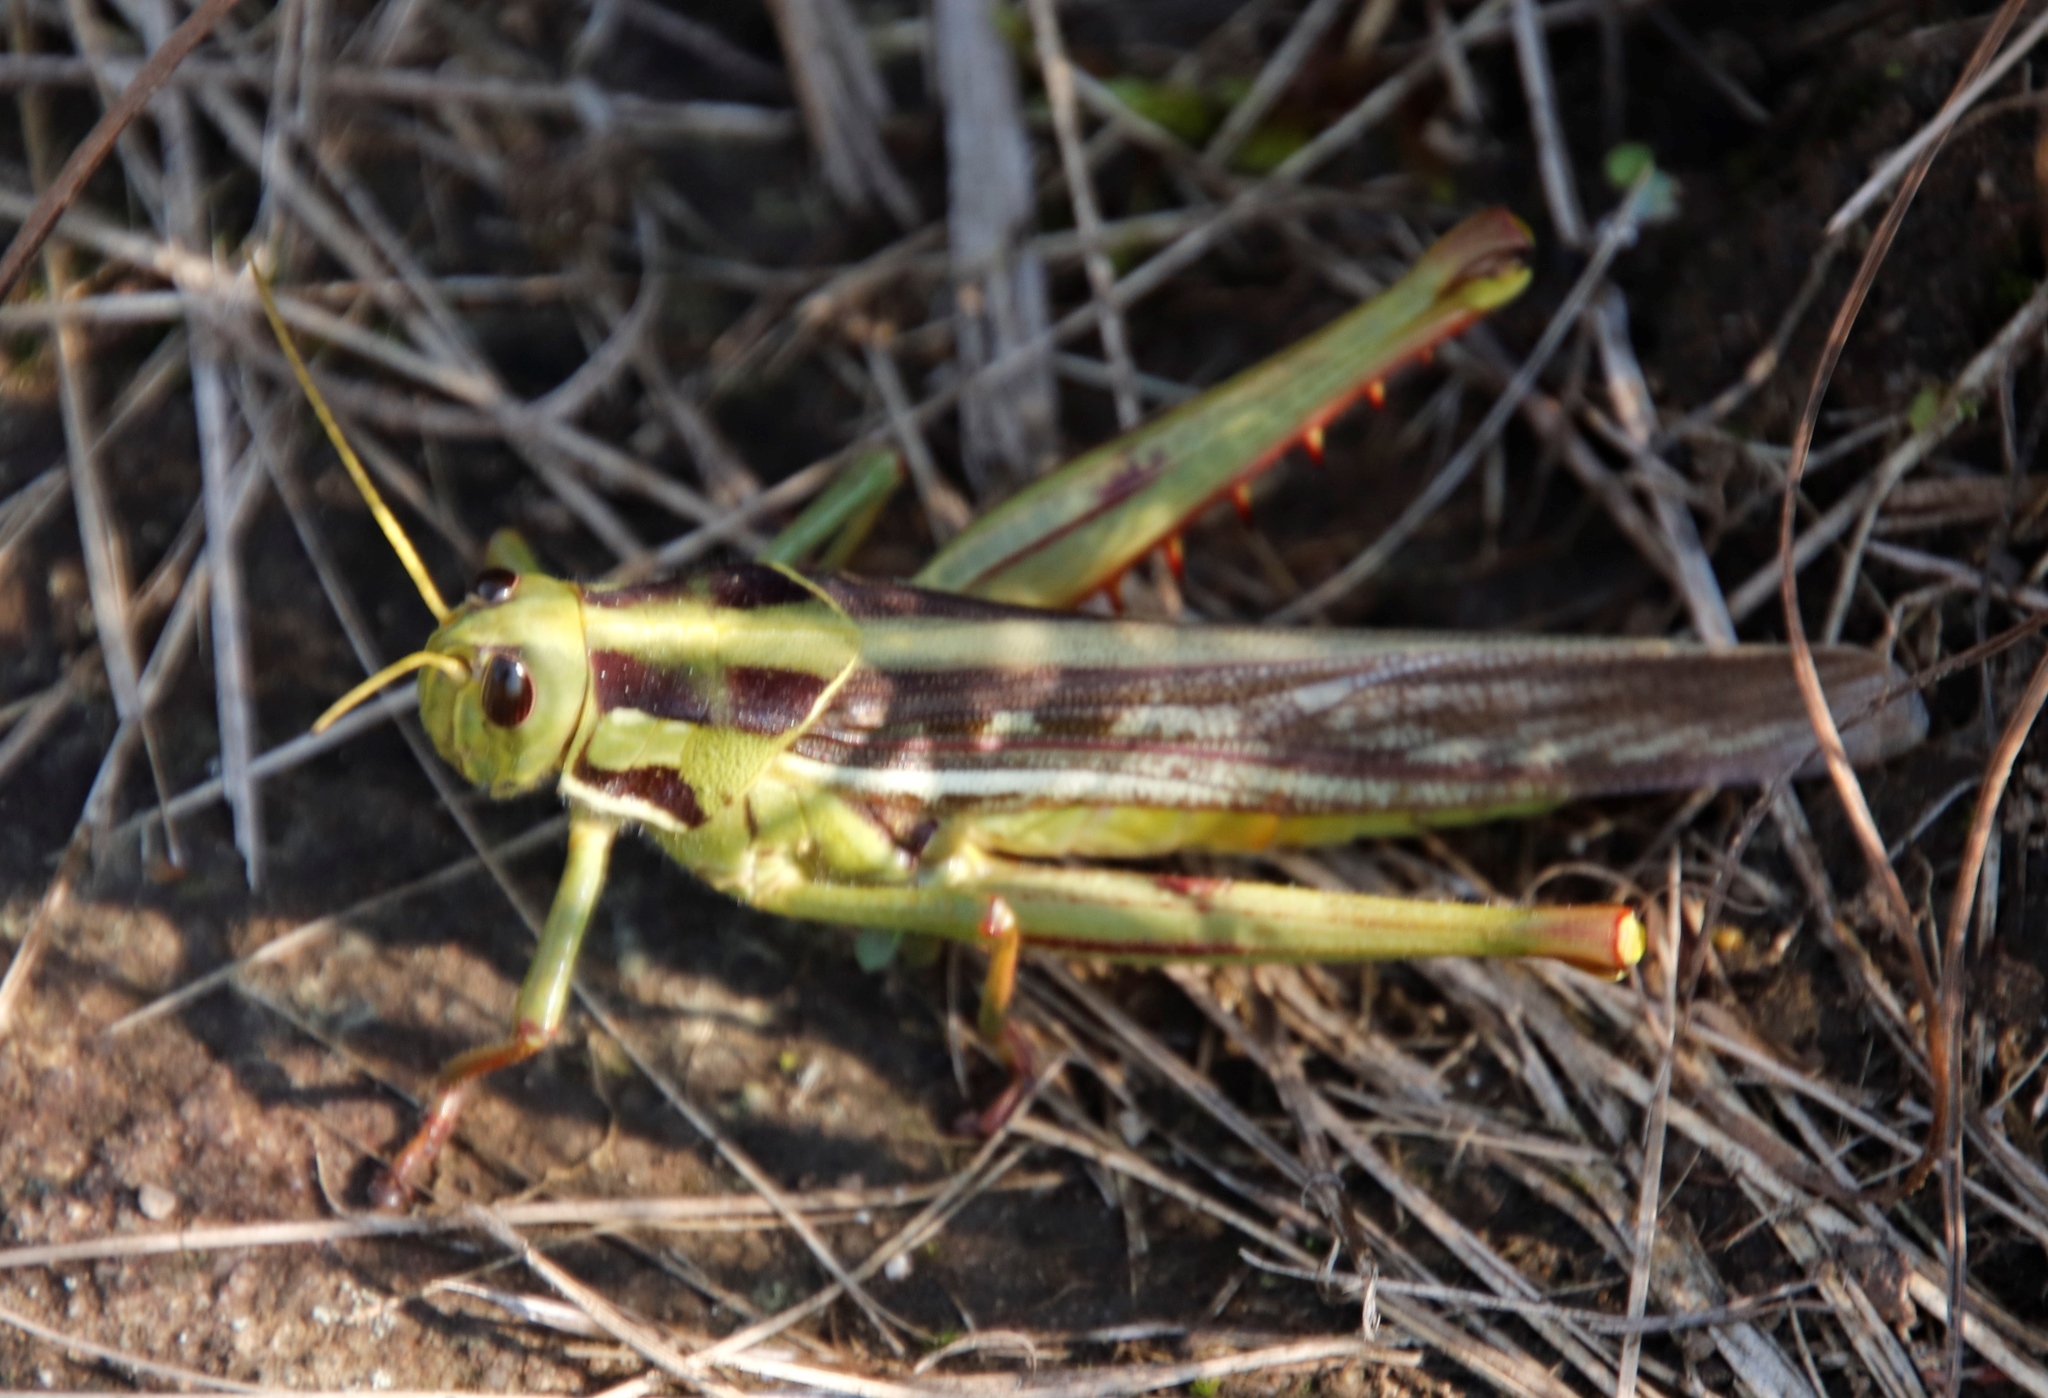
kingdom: Animalia
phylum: Arthropoda
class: Insecta
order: Orthoptera
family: Acrididae
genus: Cyrtacanthacris
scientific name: Cyrtacanthacris aeruginosa
